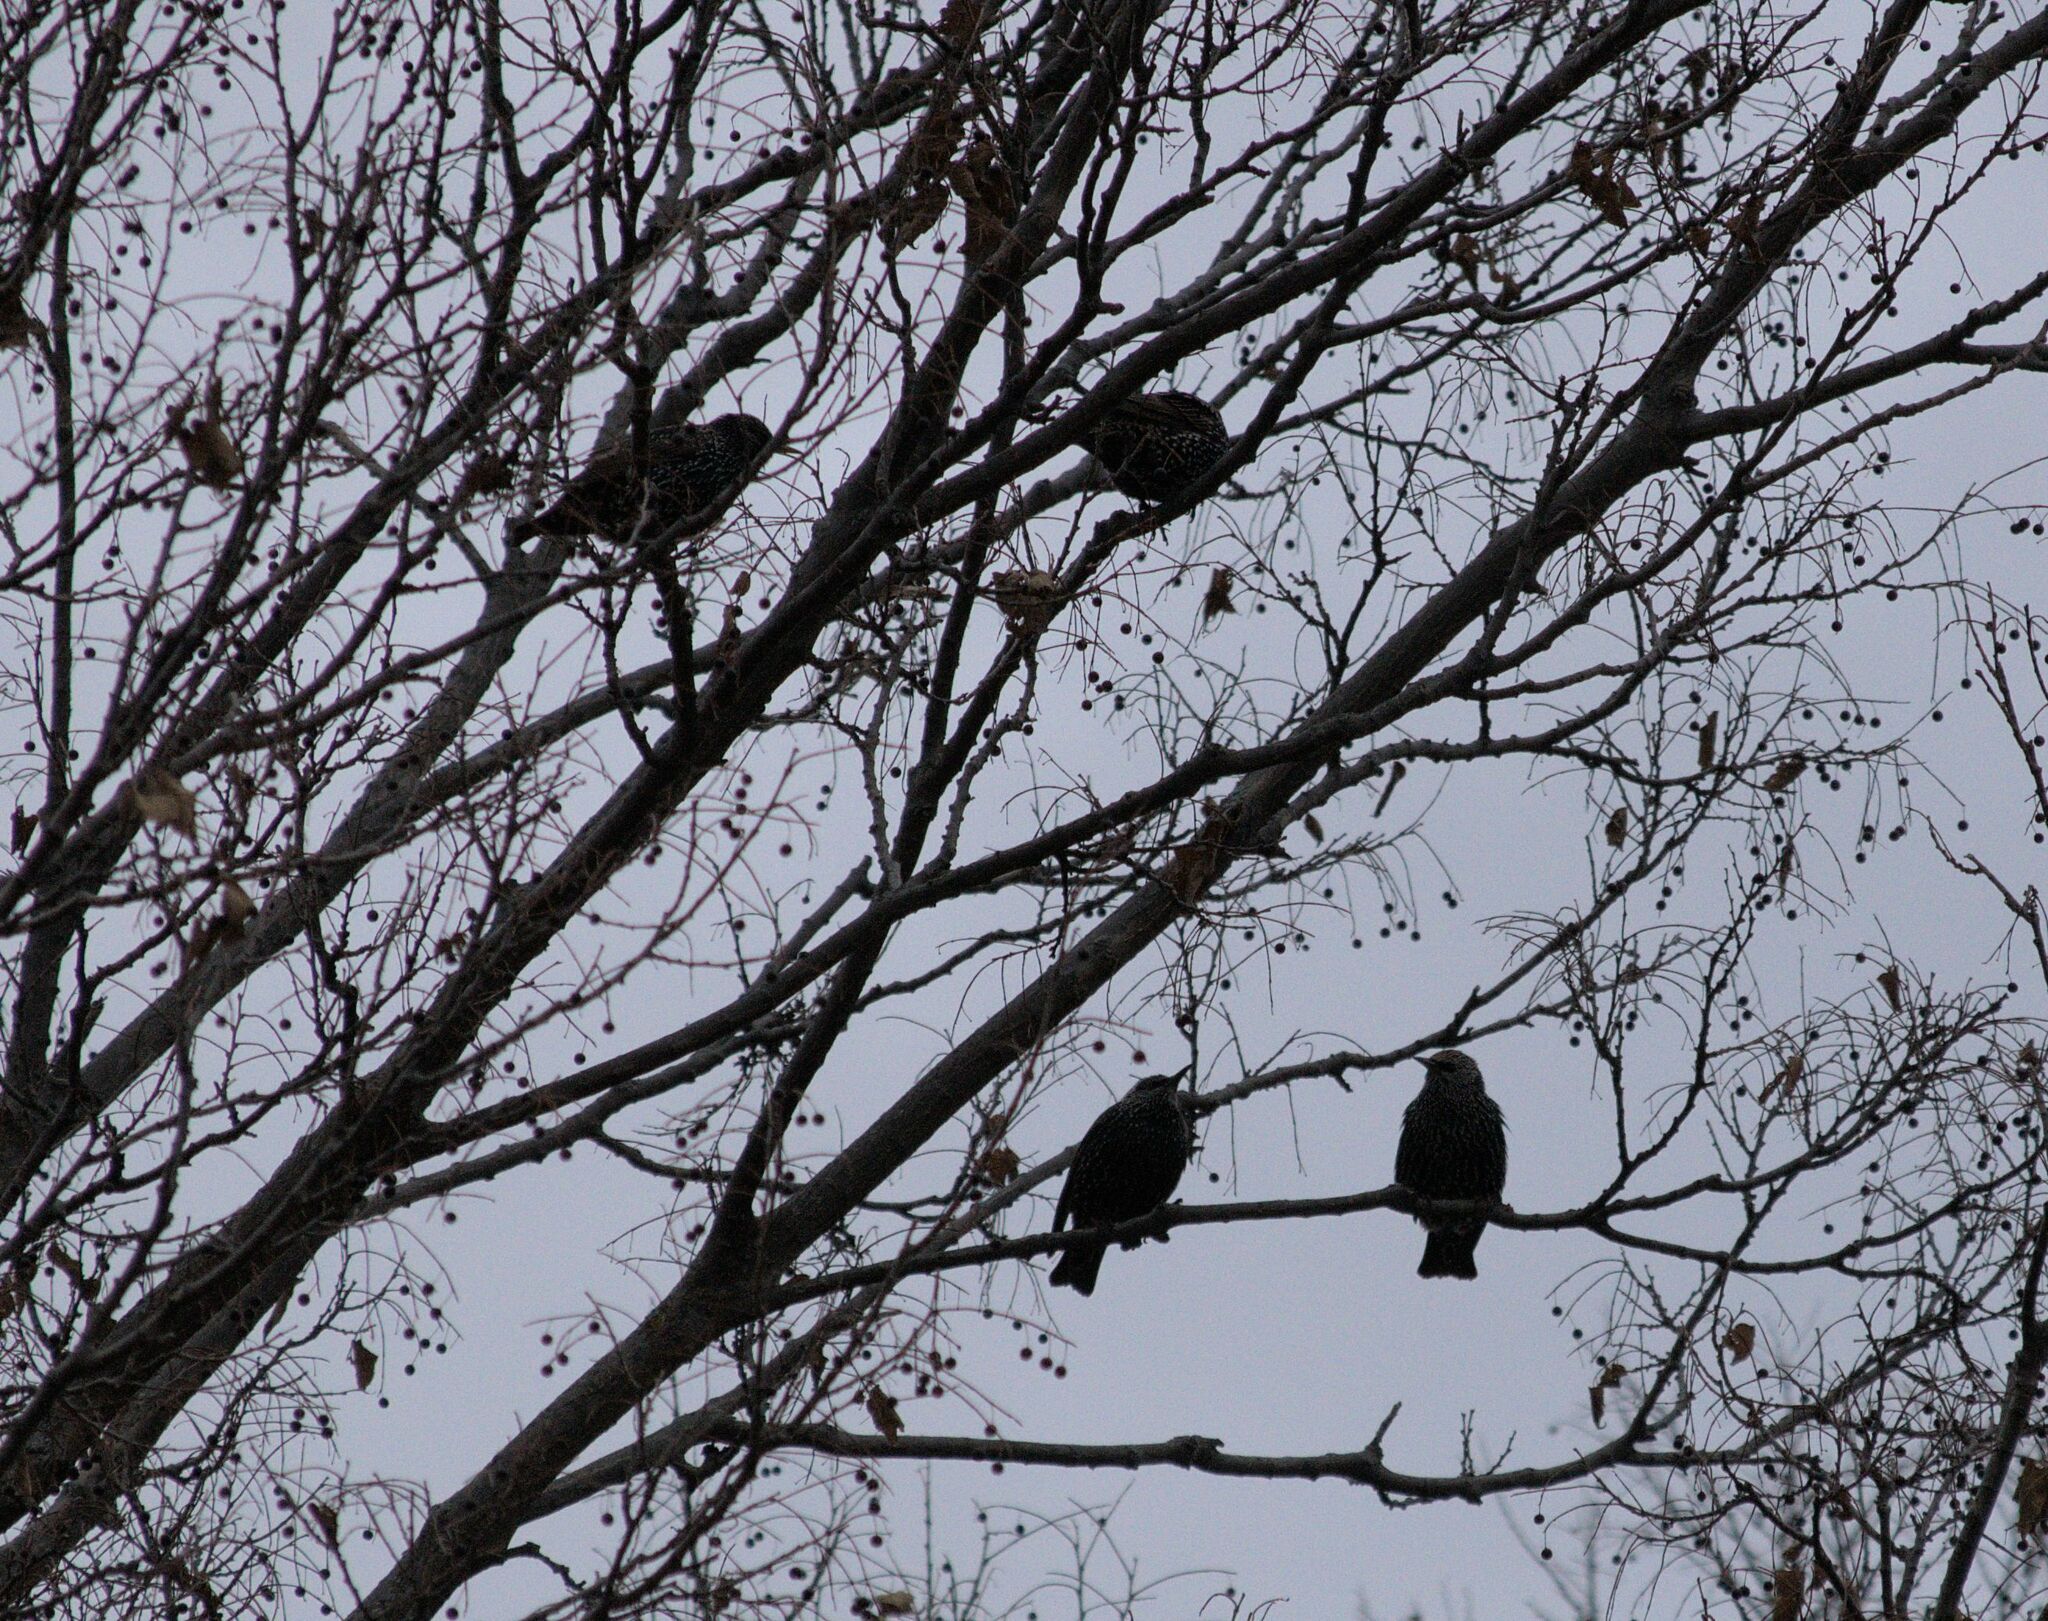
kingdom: Animalia
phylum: Chordata
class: Aves
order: Passeriformes
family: Sturnidae
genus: Sturnus
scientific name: Sturnus vulgaris
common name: Common starling
